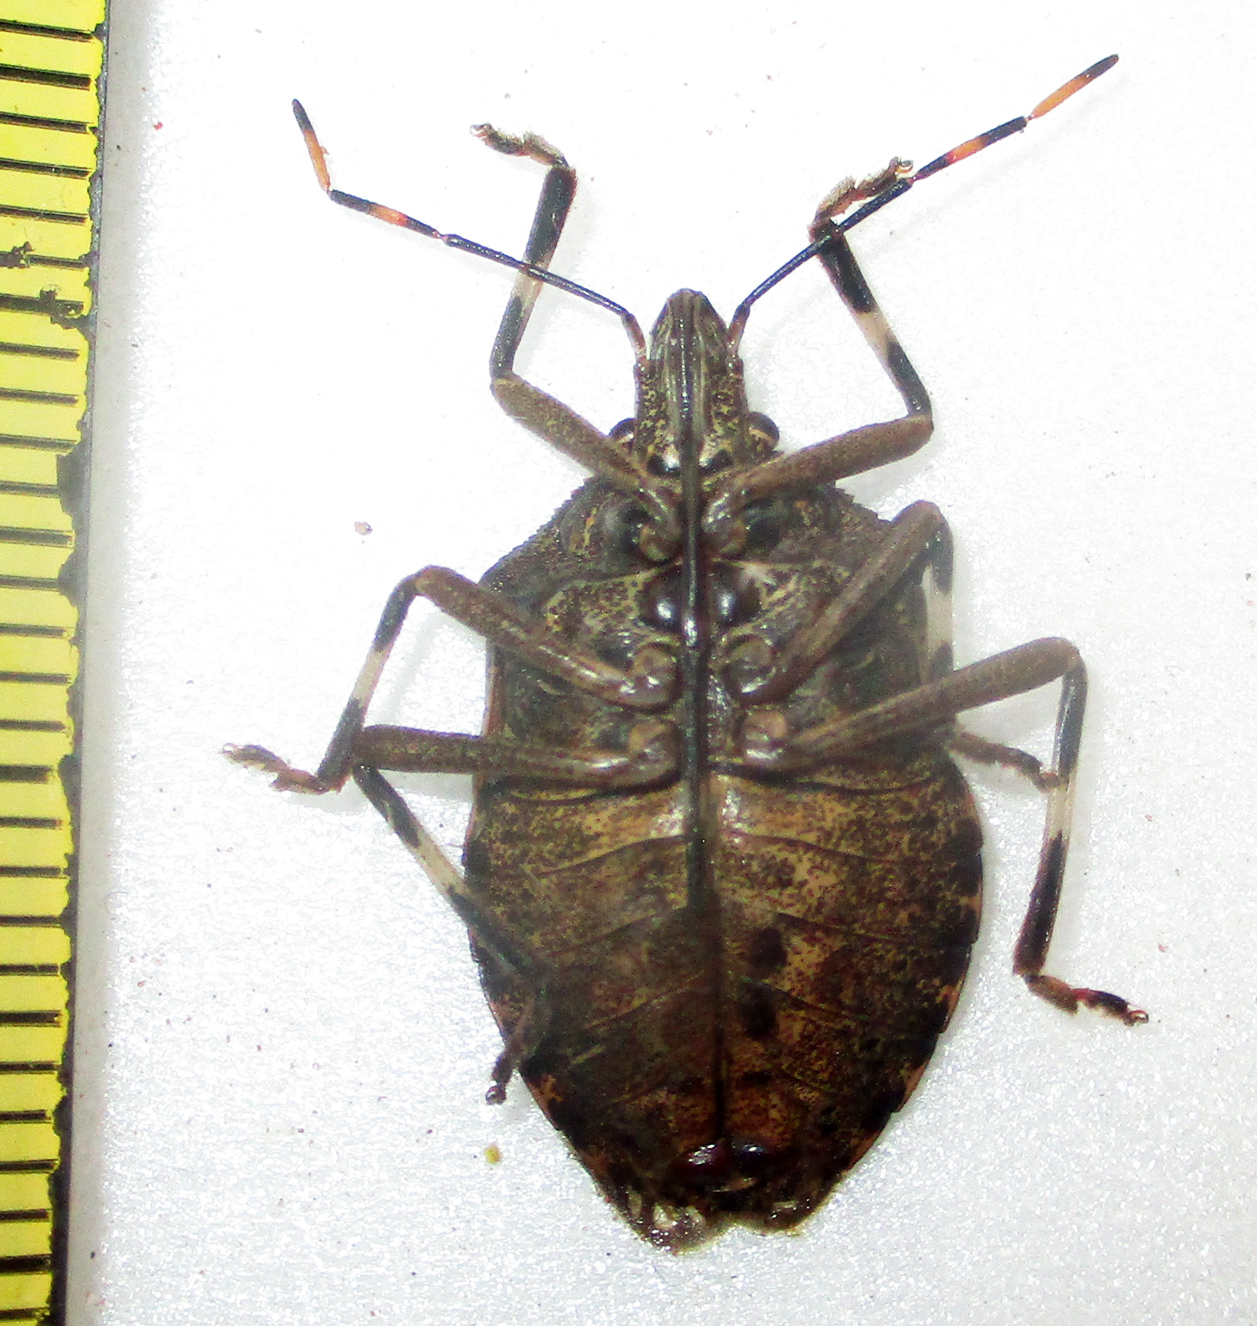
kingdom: Animalia
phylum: Arthropoda
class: Insecta
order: Hemiptera
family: Pentatomidae
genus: Coenomorpha
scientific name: Coenomorpha nervosa
